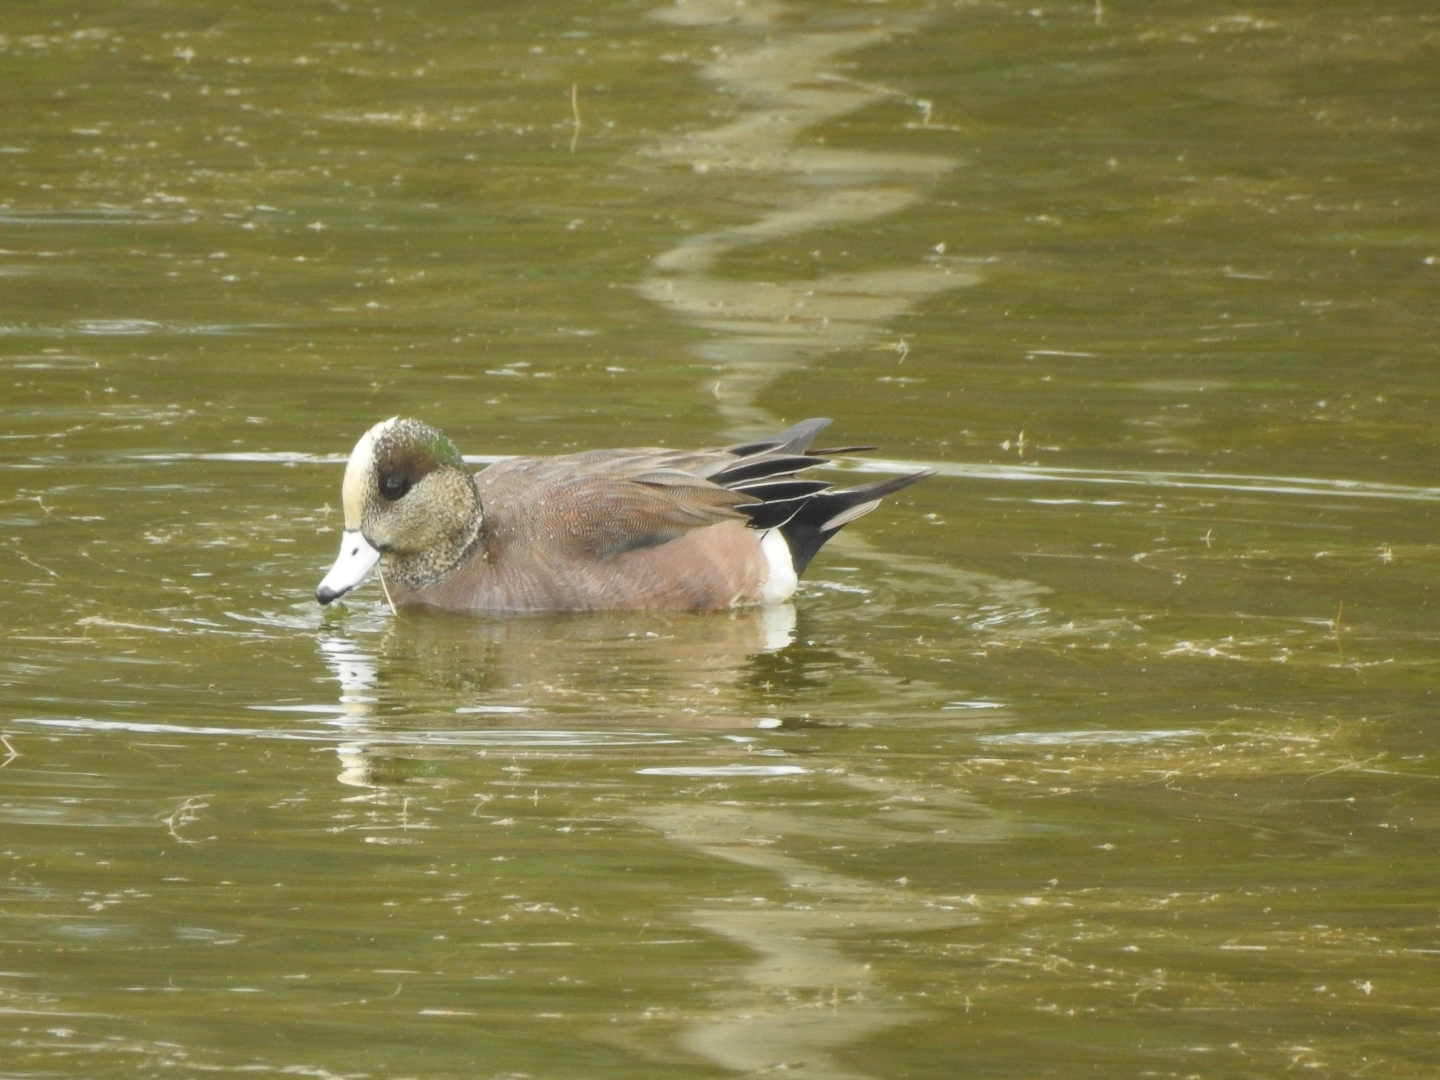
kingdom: Animalia
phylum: Chordata
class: Aves
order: Anseriformes
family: Anatidae
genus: Mareca
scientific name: Mareca americana
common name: American wigeon
